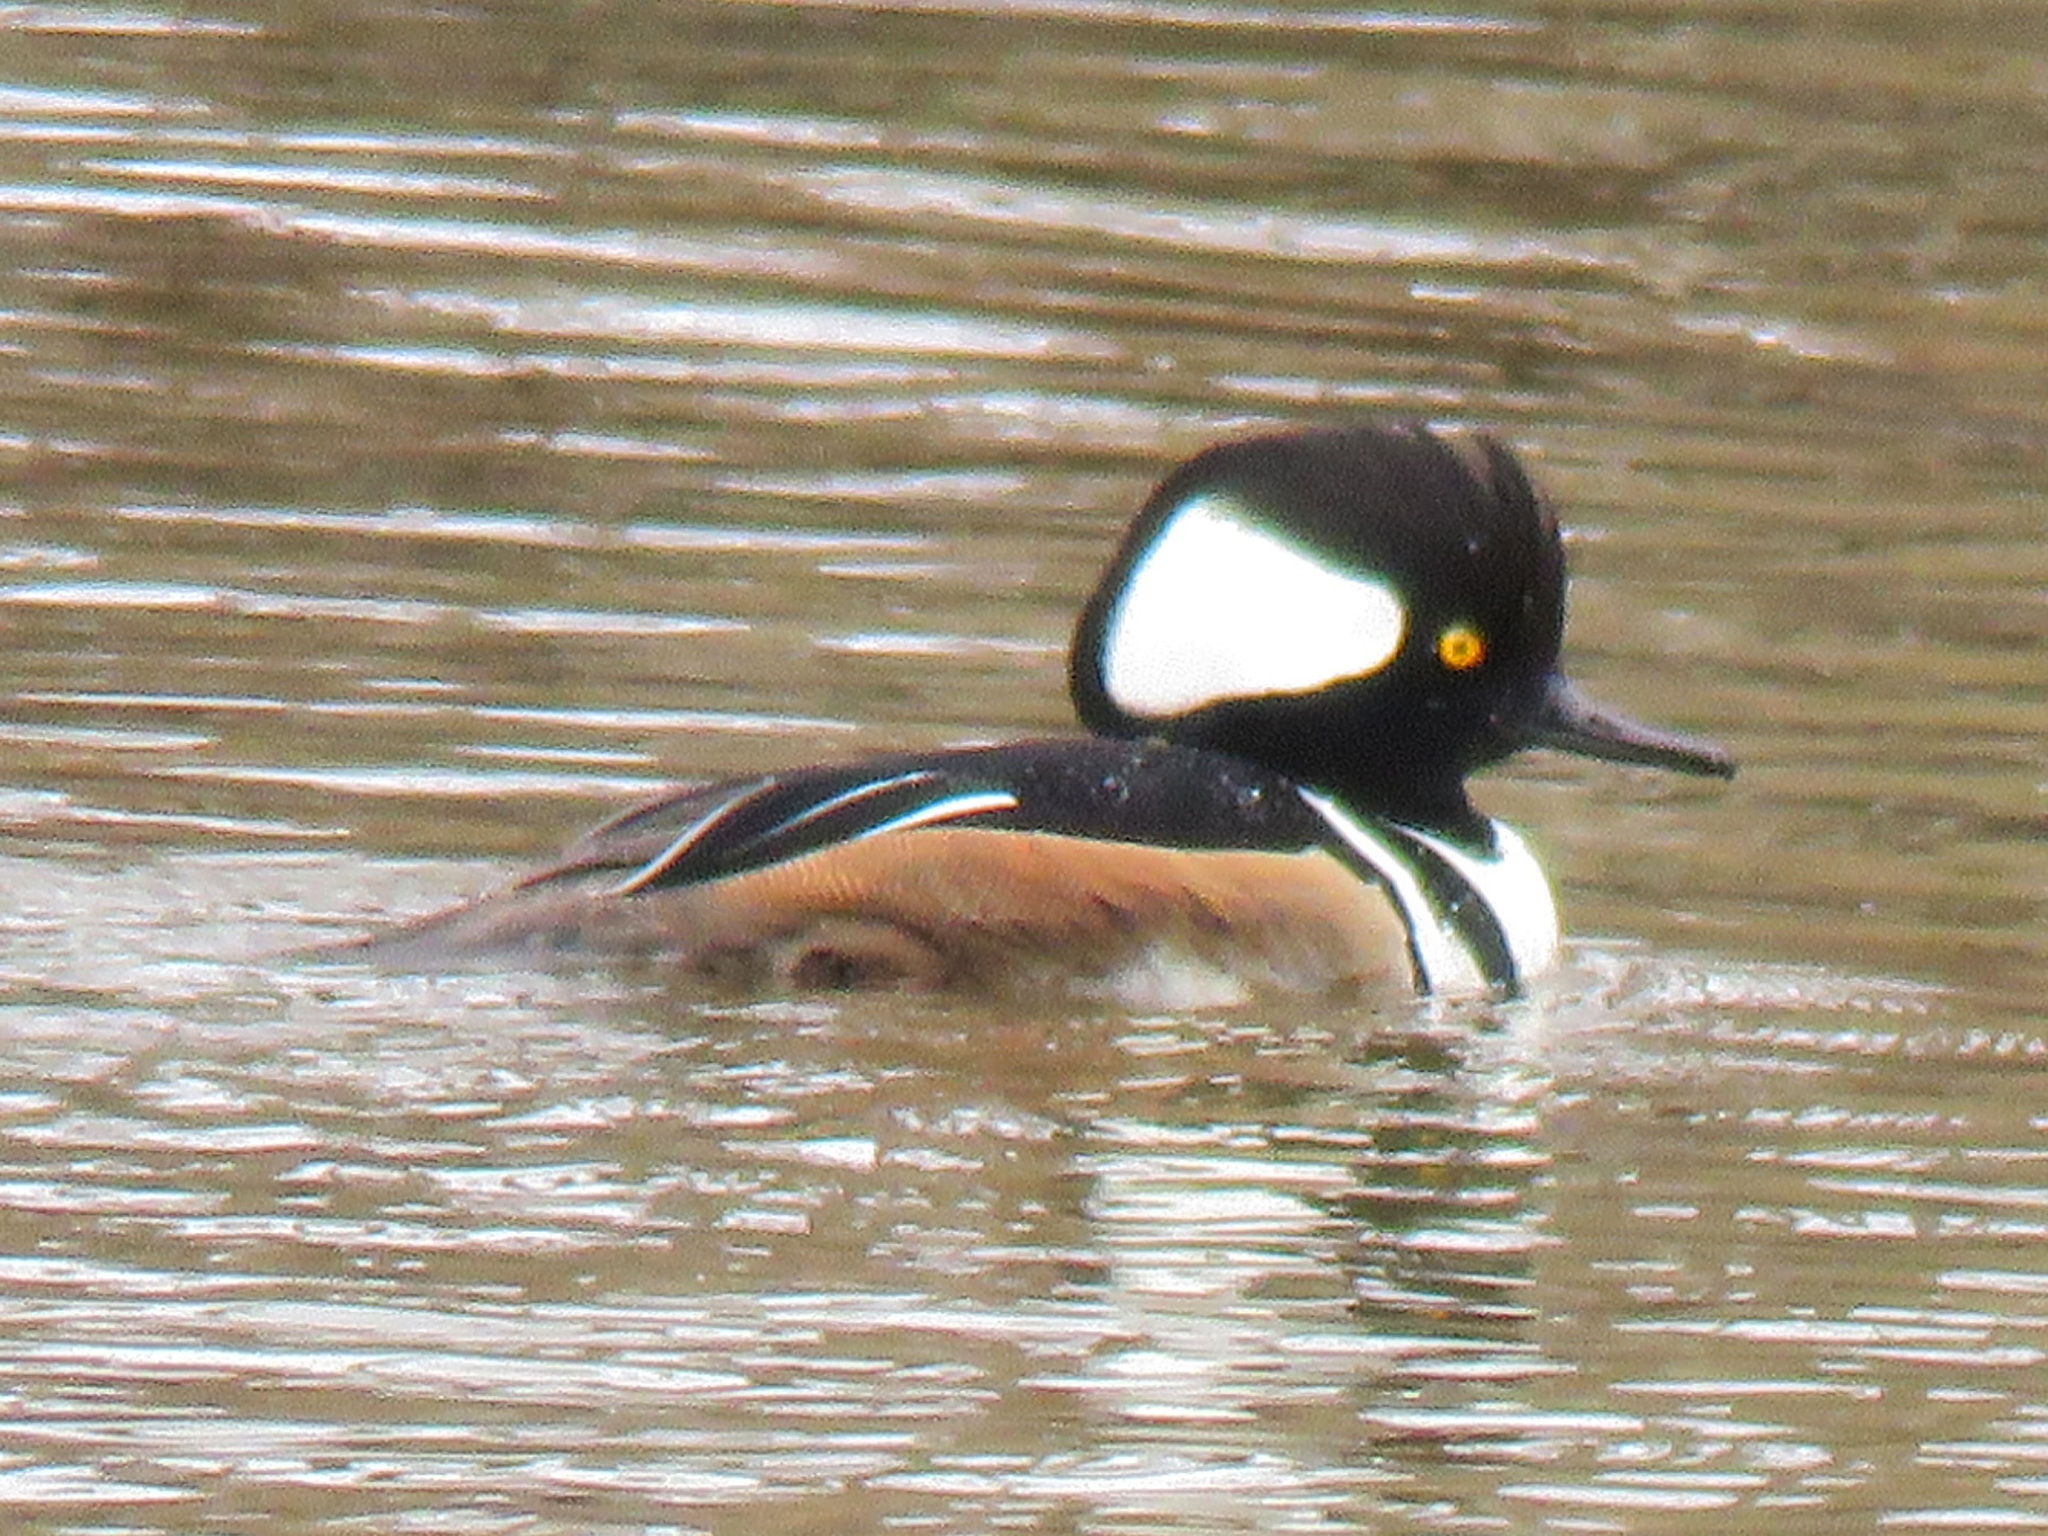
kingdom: Animalia
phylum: Chordata
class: Aves
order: Anseriformes
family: Anatidae
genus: Lophodytes
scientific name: Lophodytes cucullatus
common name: Hooded merganser
